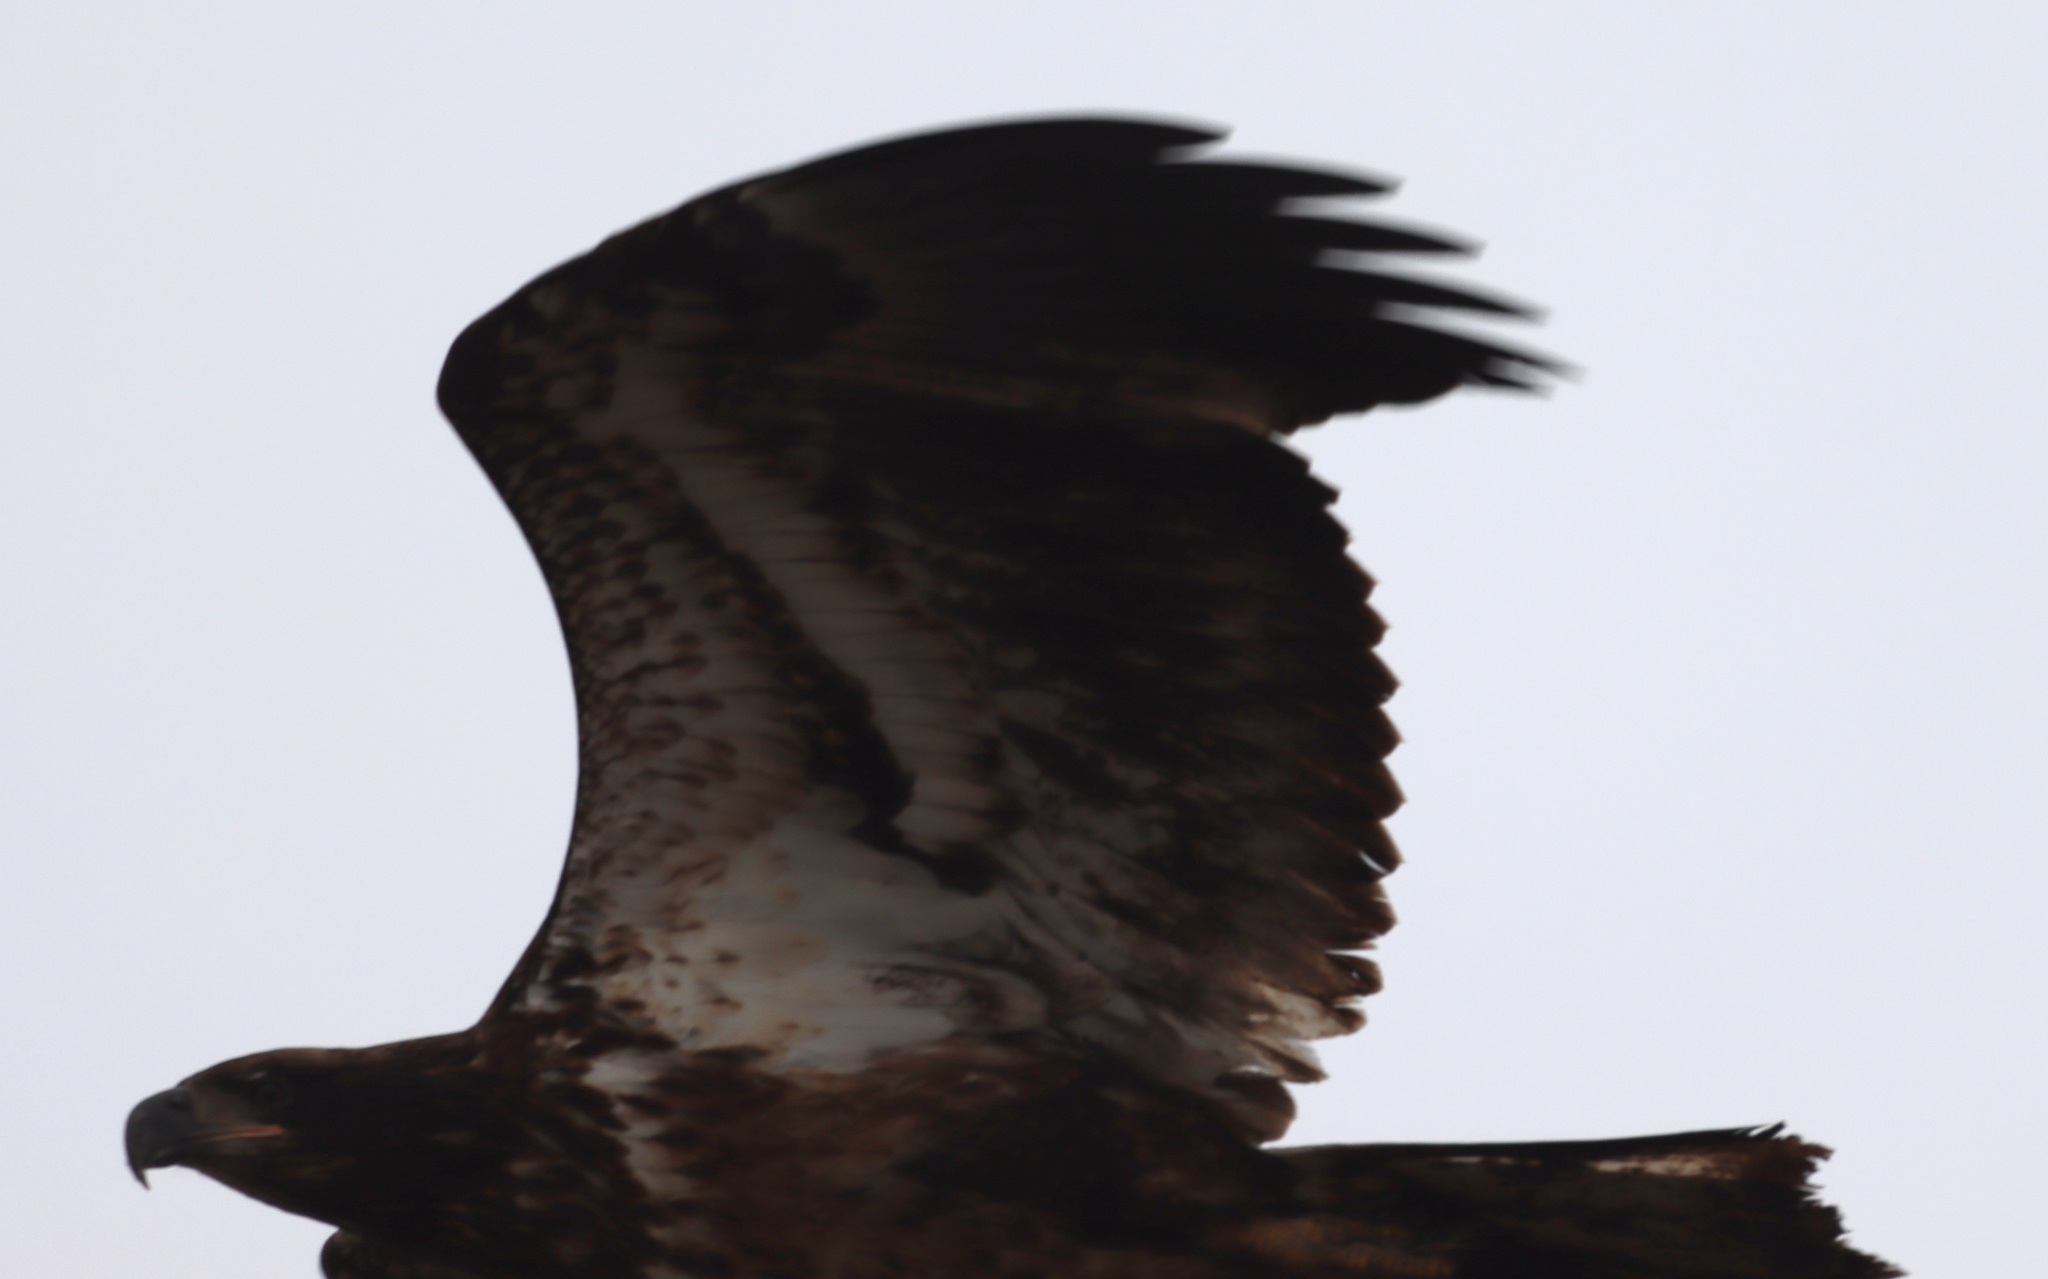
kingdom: Animalia
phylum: Chordata
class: Aves
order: Accipitriformes
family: Accipitridae
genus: Haliaeetus
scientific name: Haliaeetus leucocephalus
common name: Bald eagle
